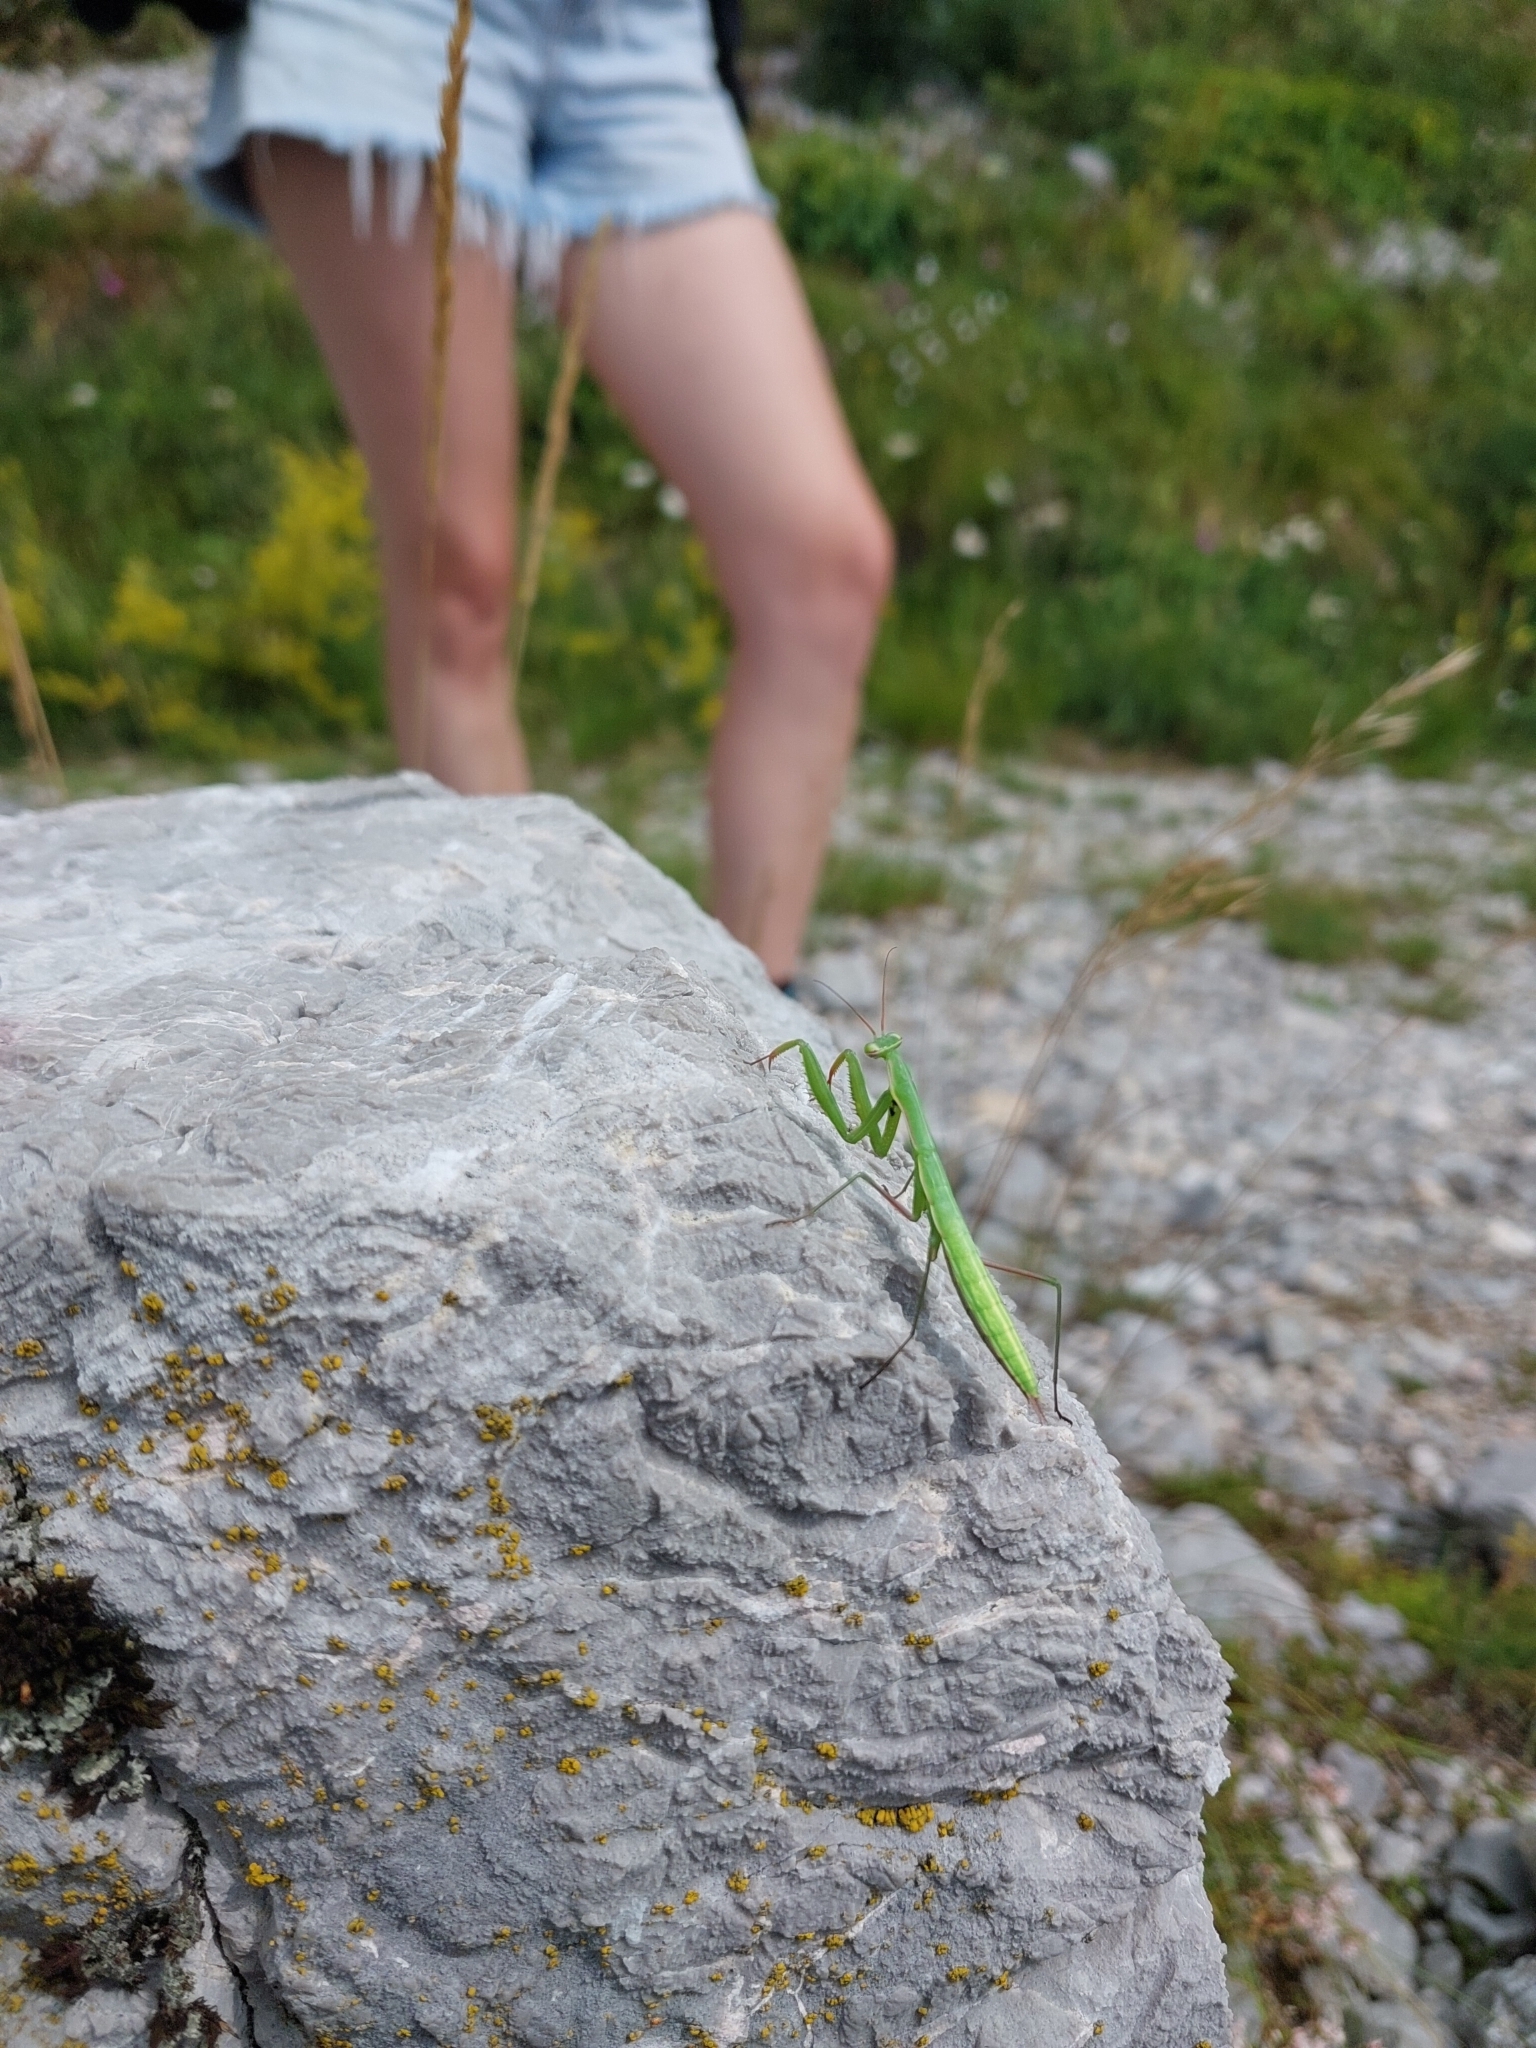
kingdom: Animalia
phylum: Arthropoda
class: Insecta
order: Mantodea
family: Mantidae
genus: Mantis
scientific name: Mantis religiosa
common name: Praying mantis
